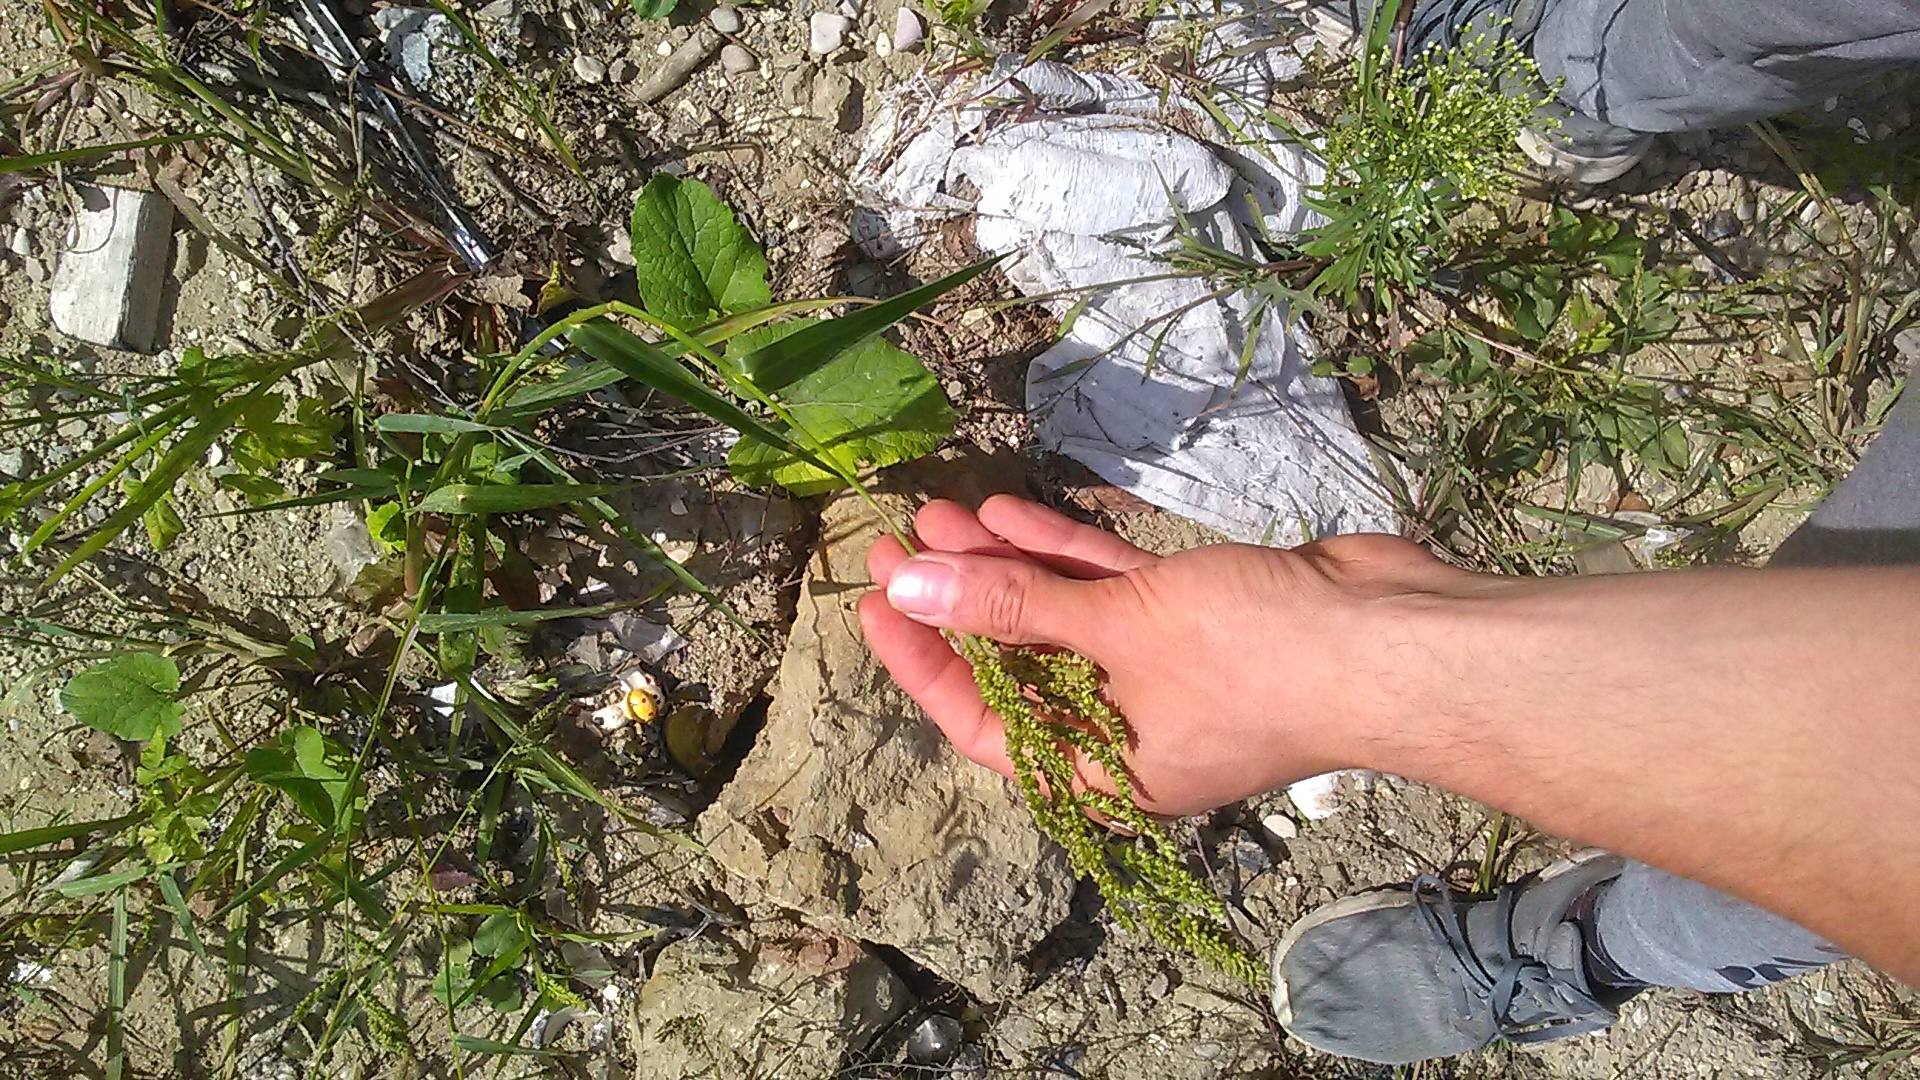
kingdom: Plantae
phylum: Tracheophyta
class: Liliopsida
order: Poales
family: Poaceae
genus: Echinochloa
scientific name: Echinochloa crus-galli
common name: Cockspur
